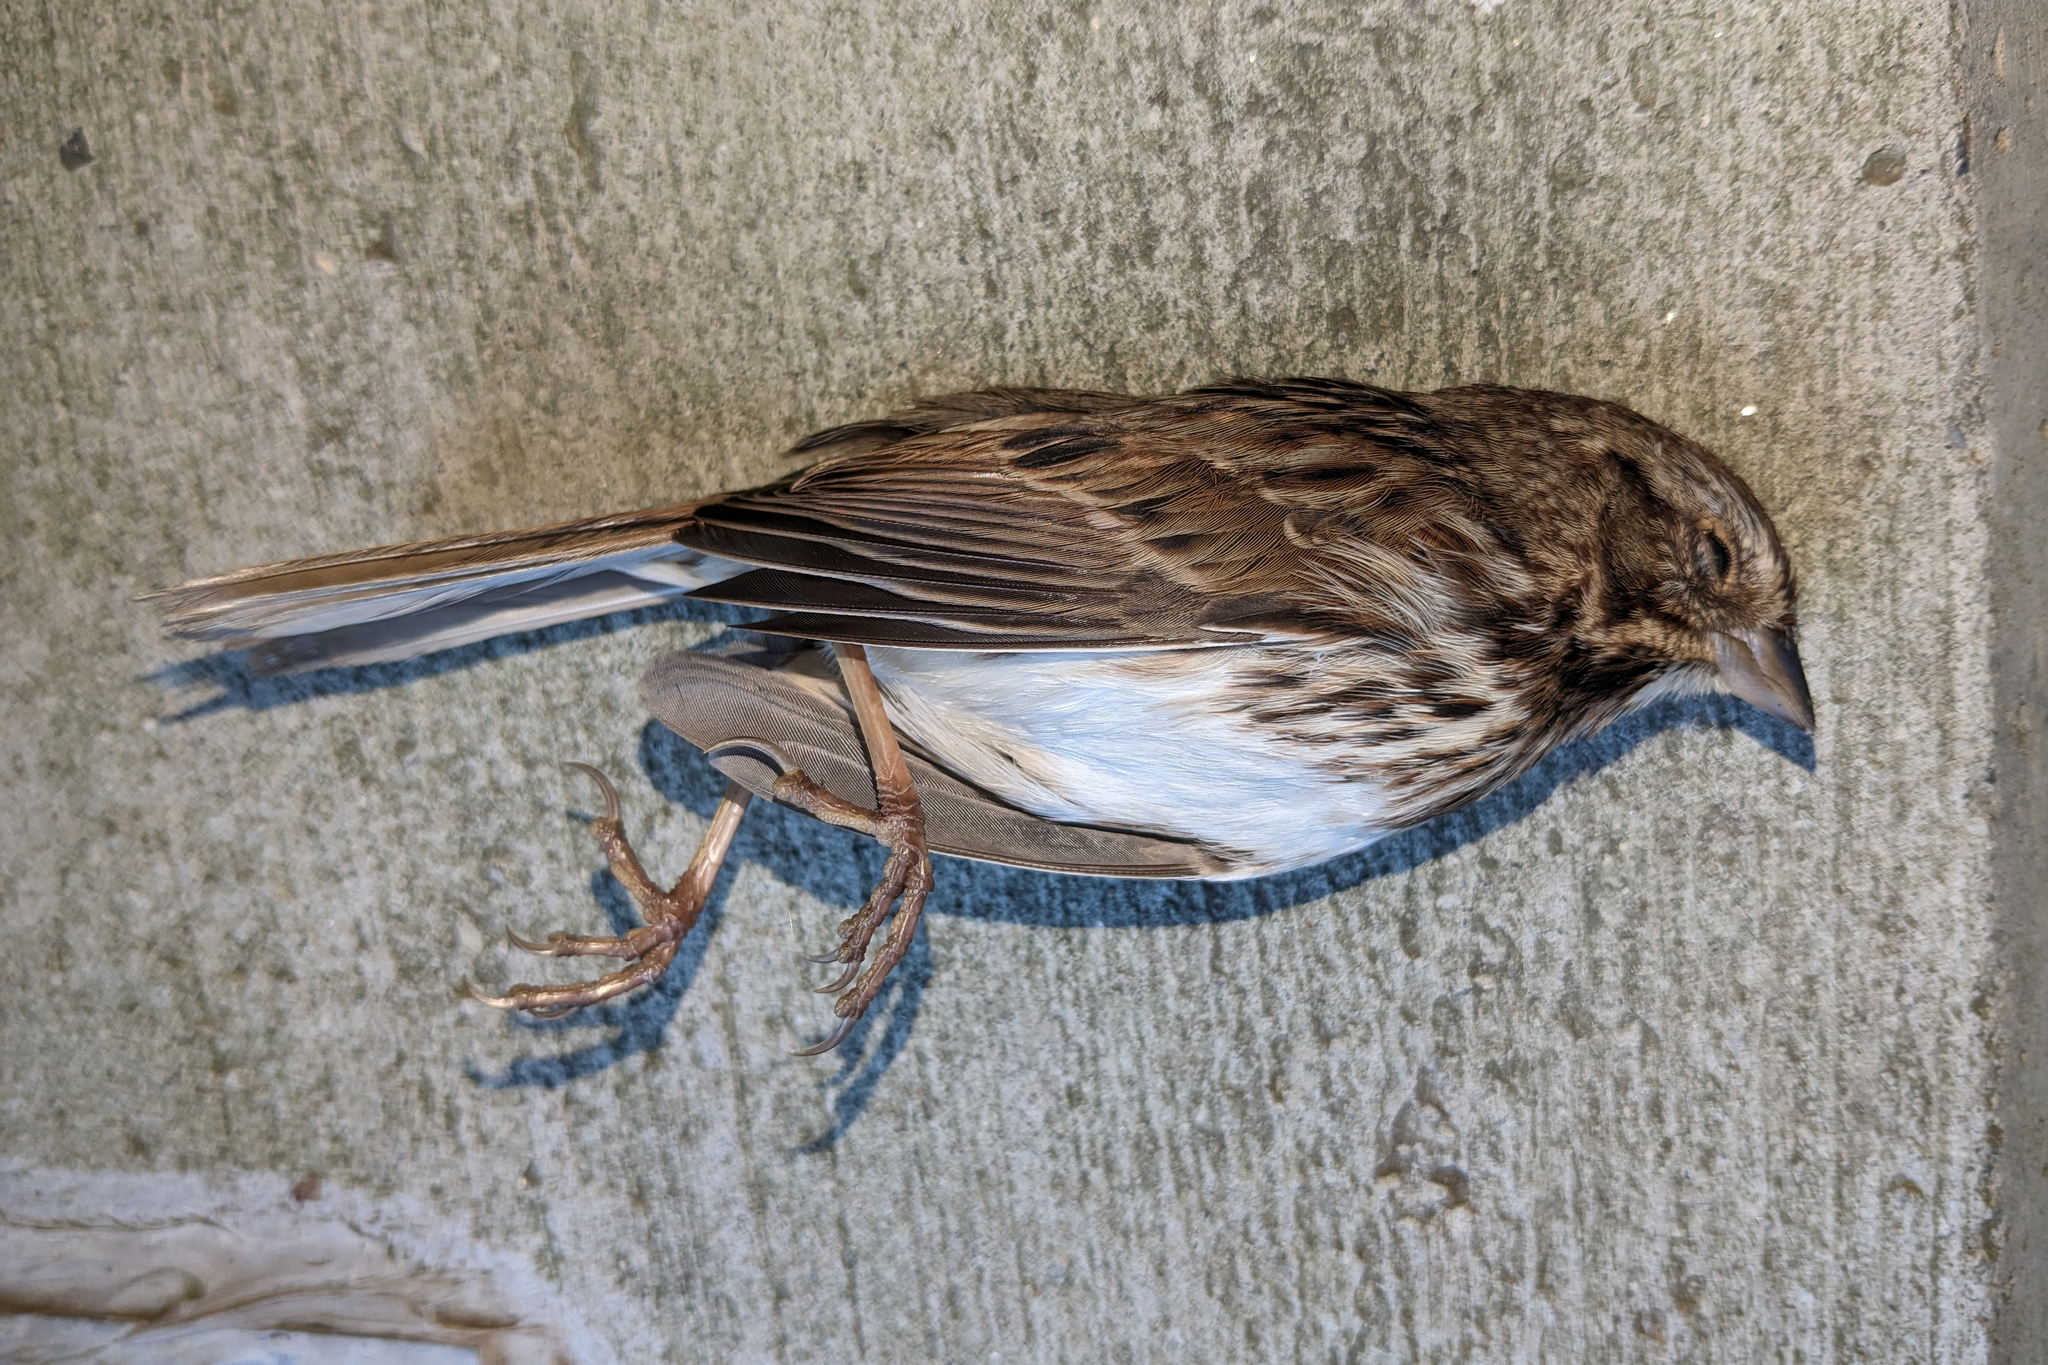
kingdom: Animalia
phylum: Chordata
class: Aves
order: Passeriformes
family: Passerellidae
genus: Melospiza
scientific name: Melospiza melodia
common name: Song sparrow
